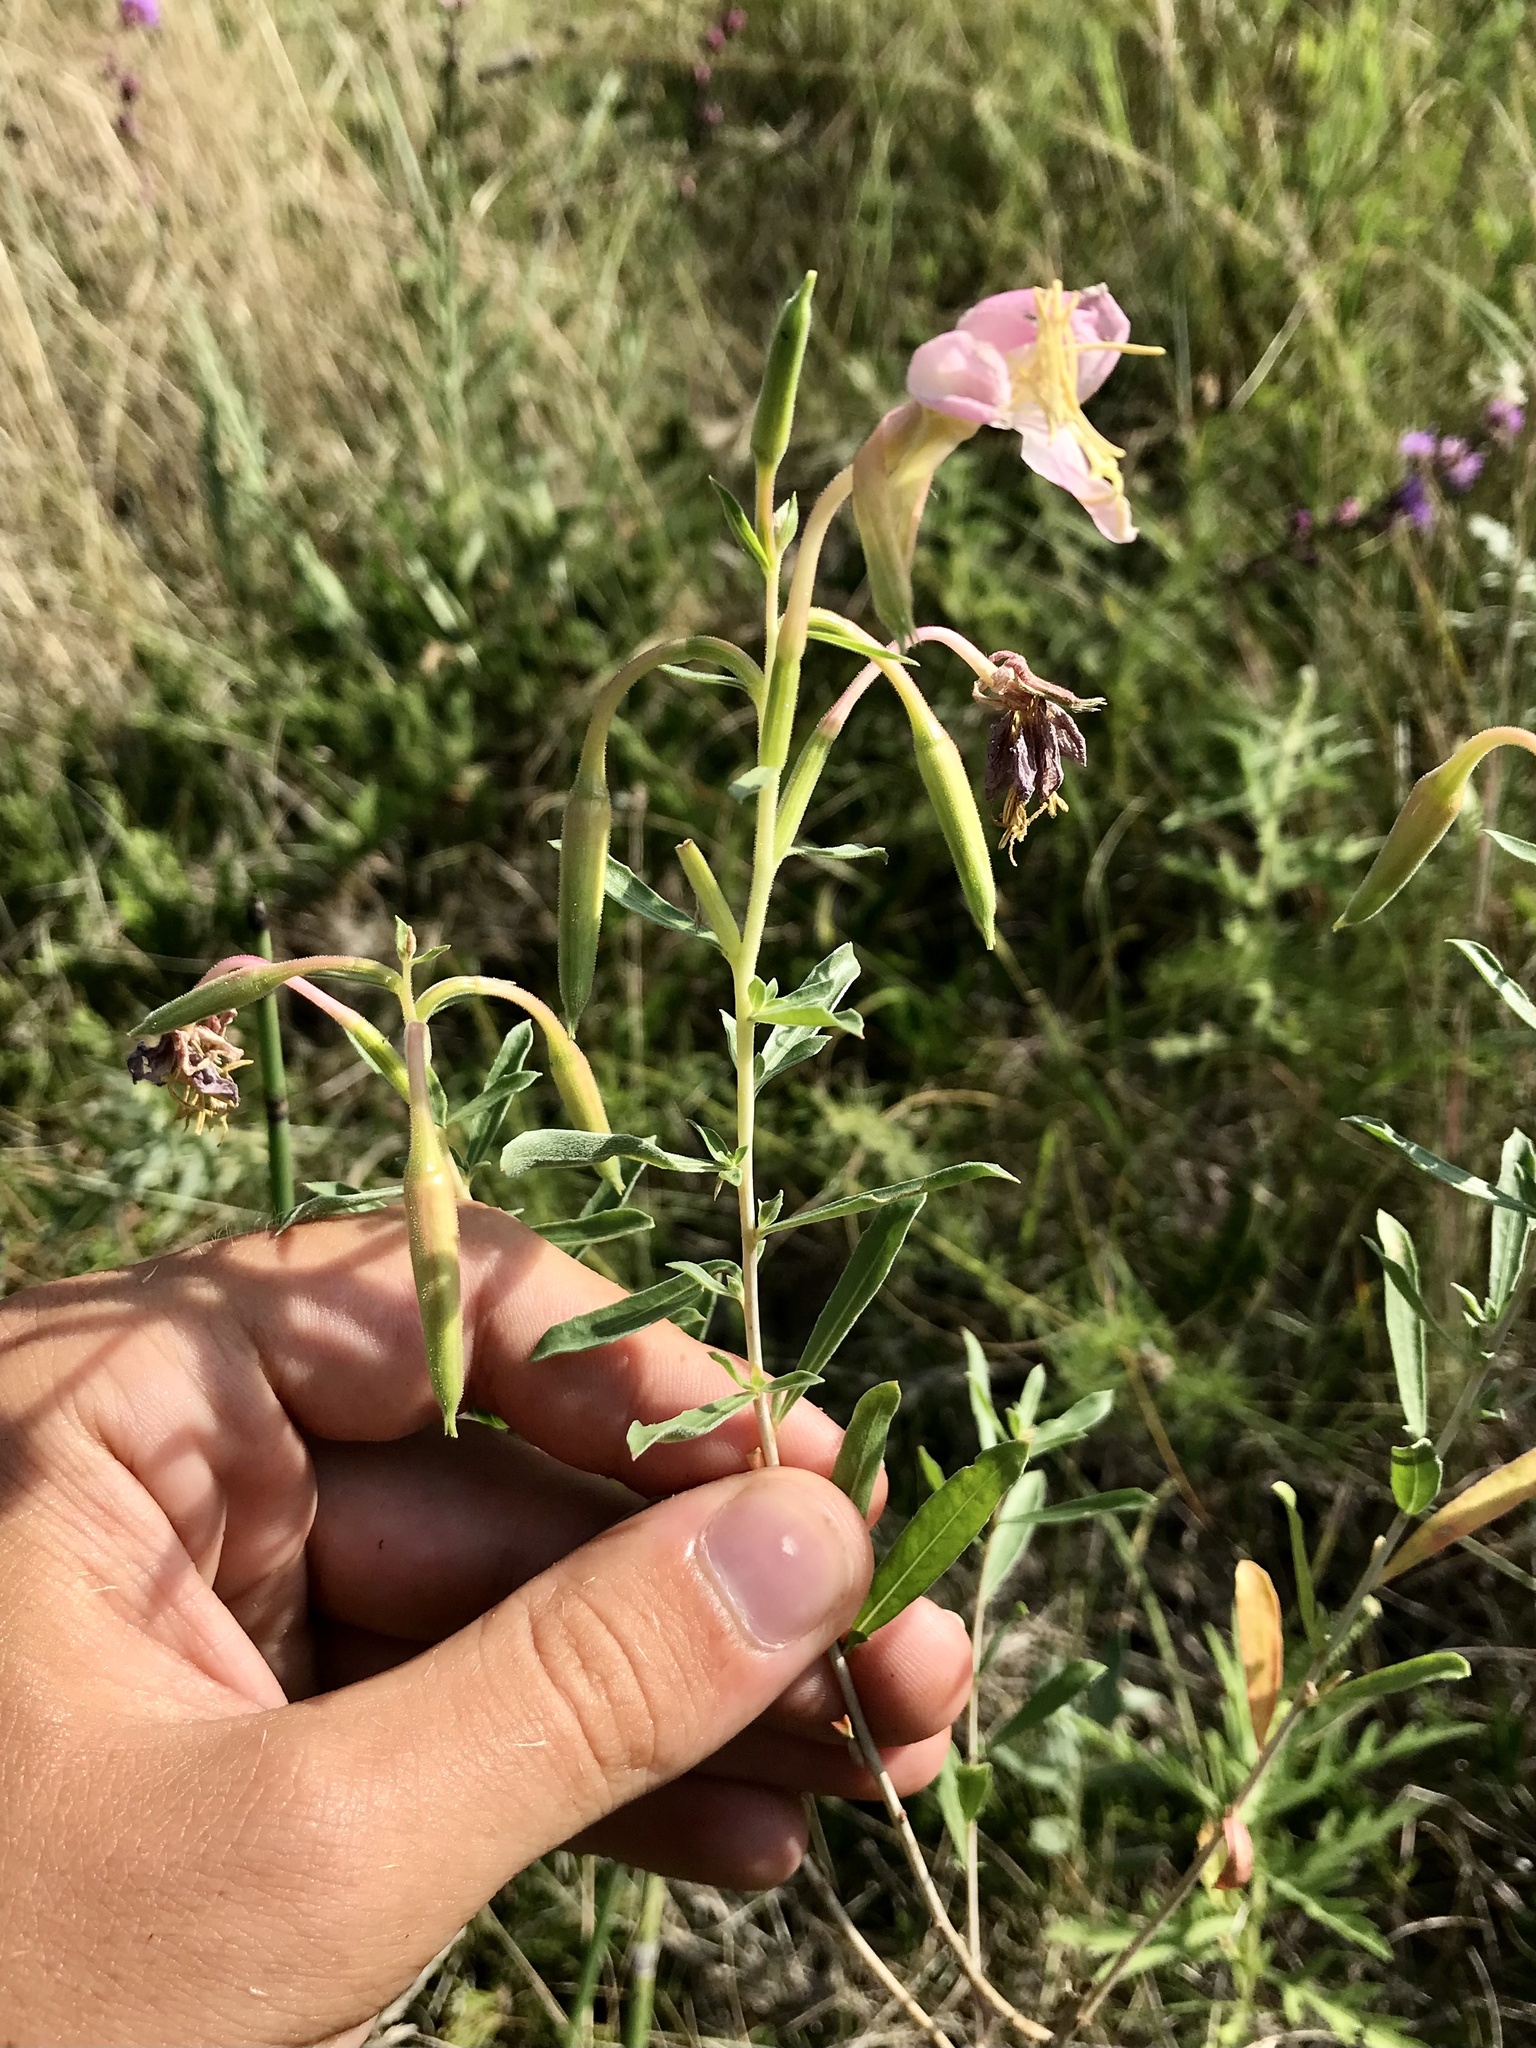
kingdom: Plantae
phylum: Tracheophyta
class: Magnoliopsida
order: Myrtales
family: Onagraceae
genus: Oenothera
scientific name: Oenothera nuttallii
